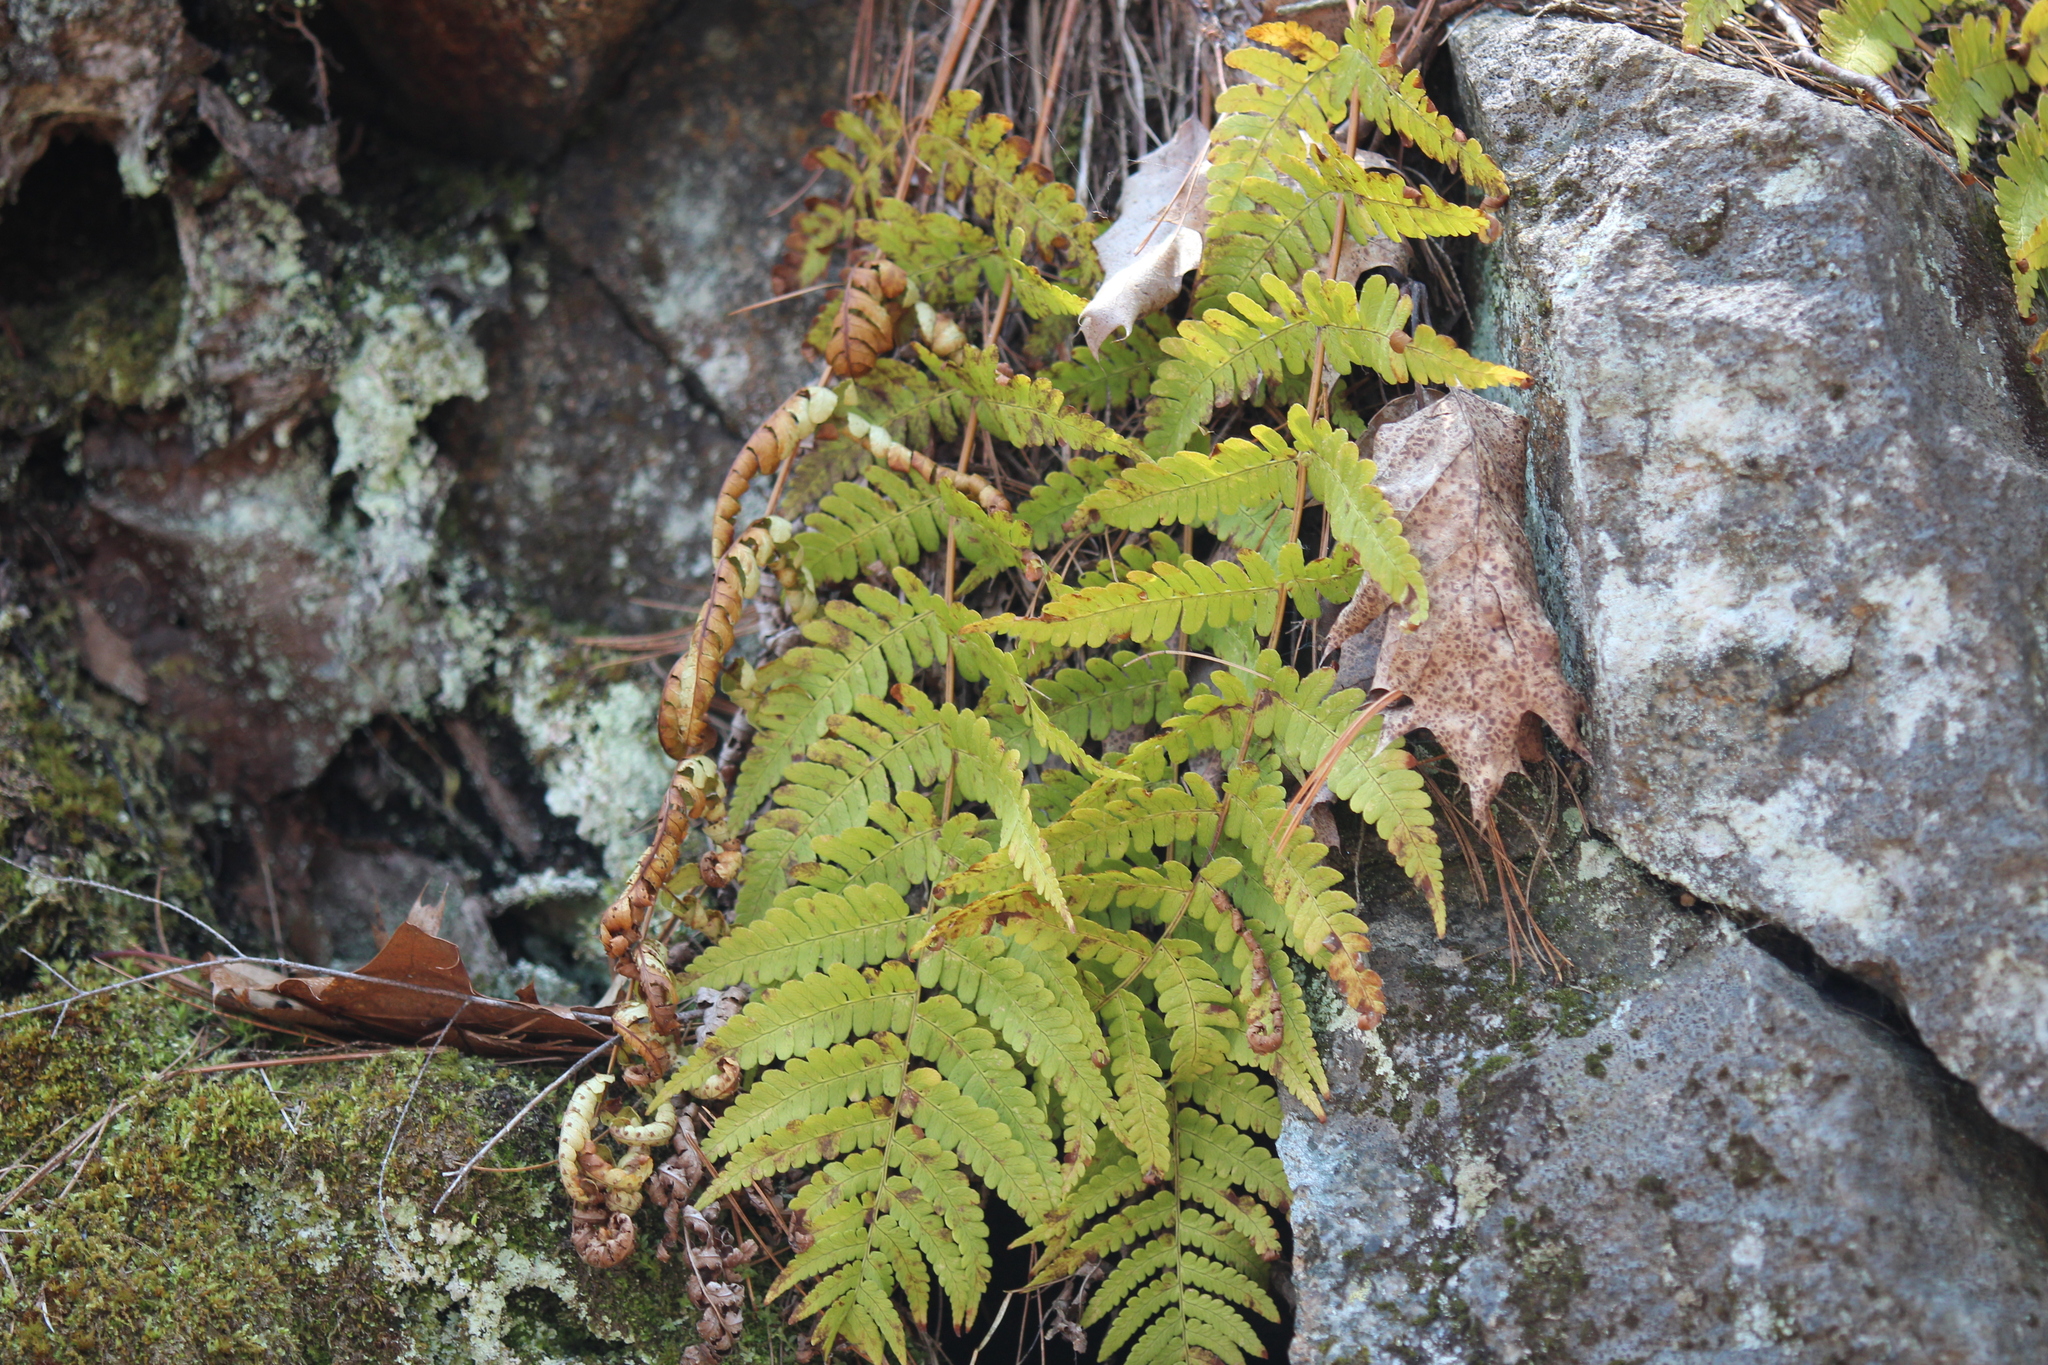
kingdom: Plantae
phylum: Tracheophyta
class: Polypodiopsida
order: Polypodiales
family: Dryopteridaceae
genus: Dryopteris
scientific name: Dryopteris marginalis
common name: Marginal wood fern
